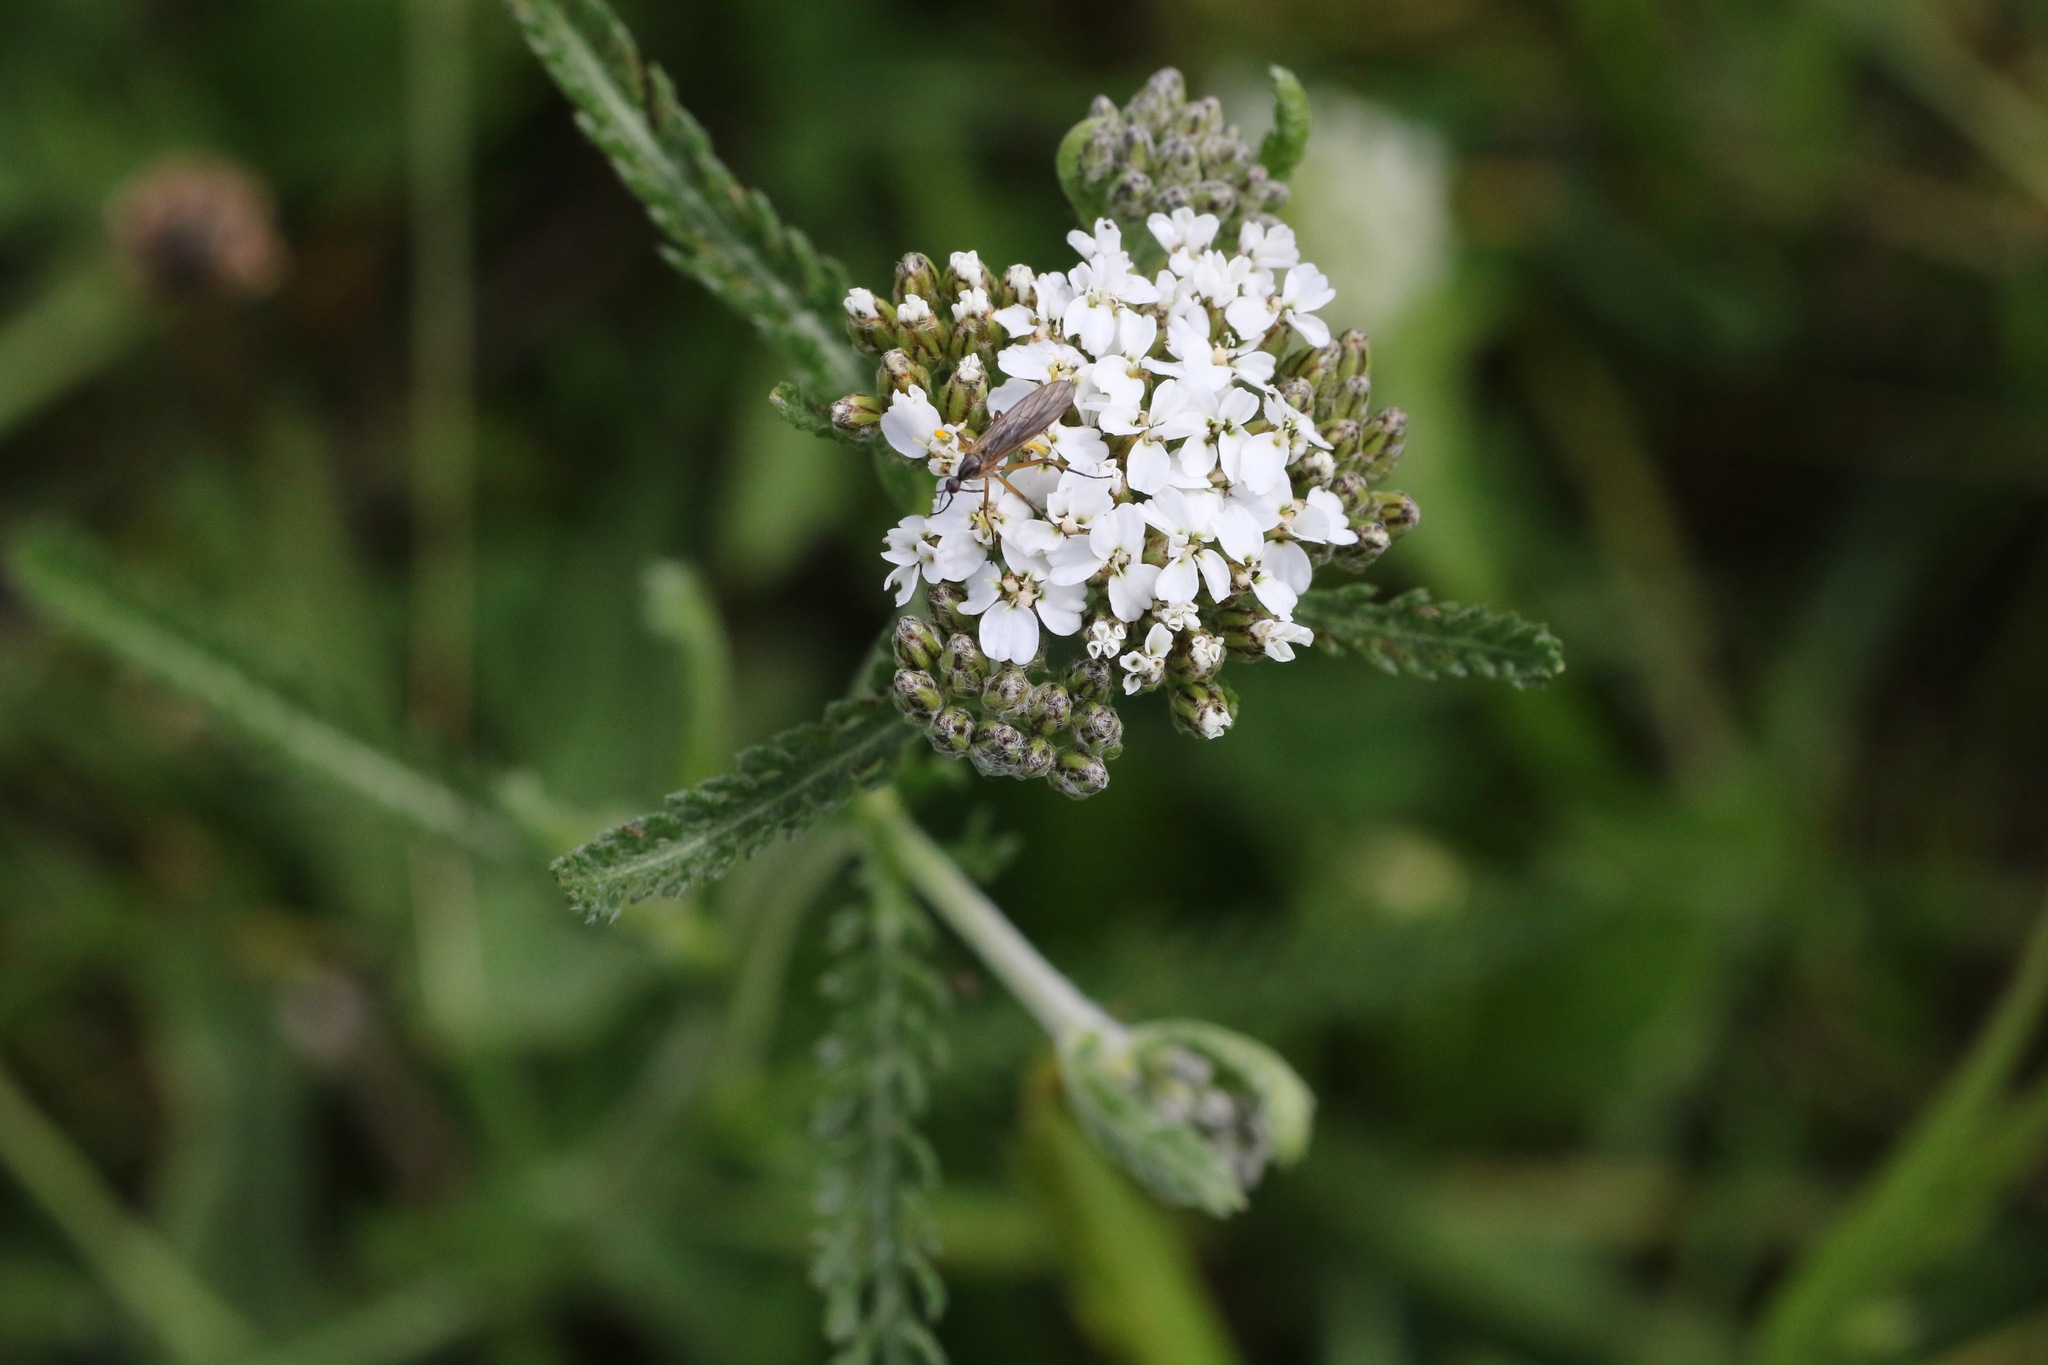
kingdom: Plantae
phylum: Tracheophyta
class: Magnoliopsida
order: Asterales
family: Asteraceae
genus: Achillea
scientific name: Achillea millefolium
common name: Yarrow
